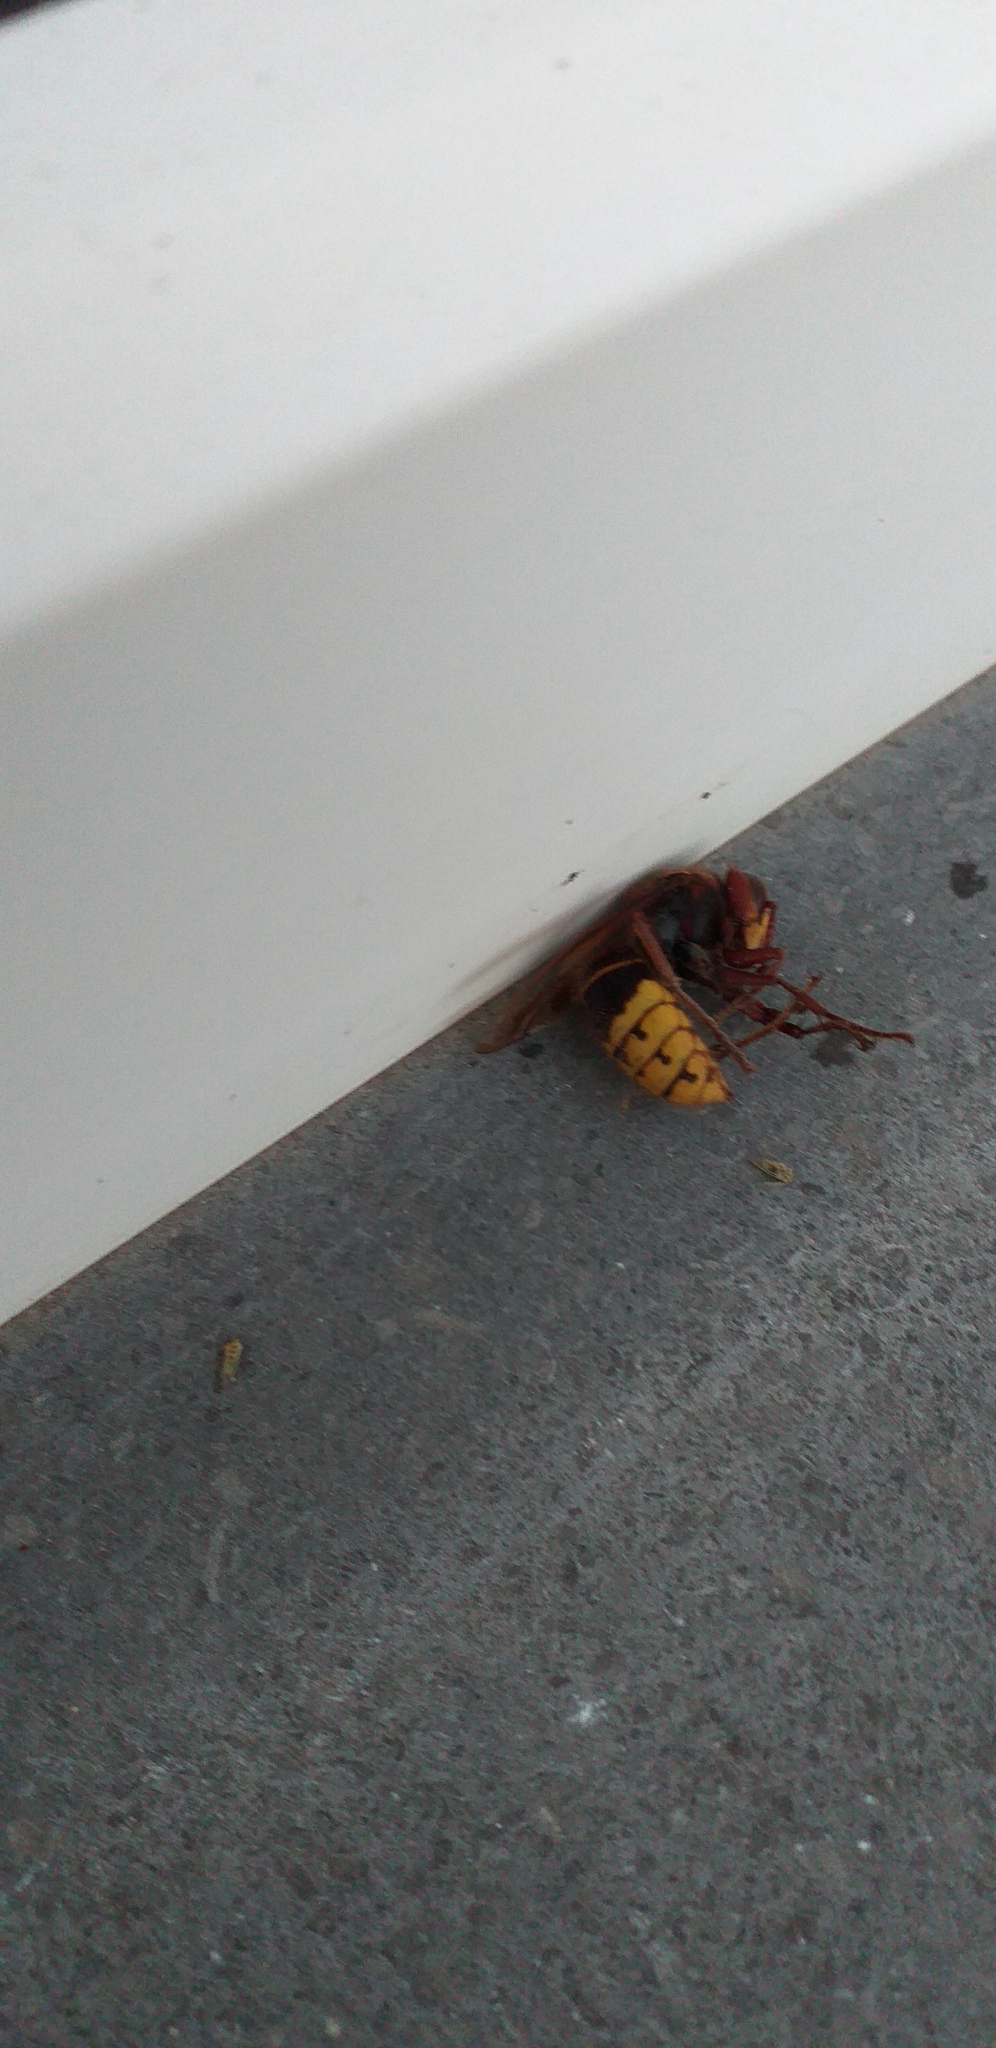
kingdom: Animalia
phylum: Arthropoda
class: Insecta
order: Hymenoptera
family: Vespidae
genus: Vespa
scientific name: Vespa crabro
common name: Hornet
